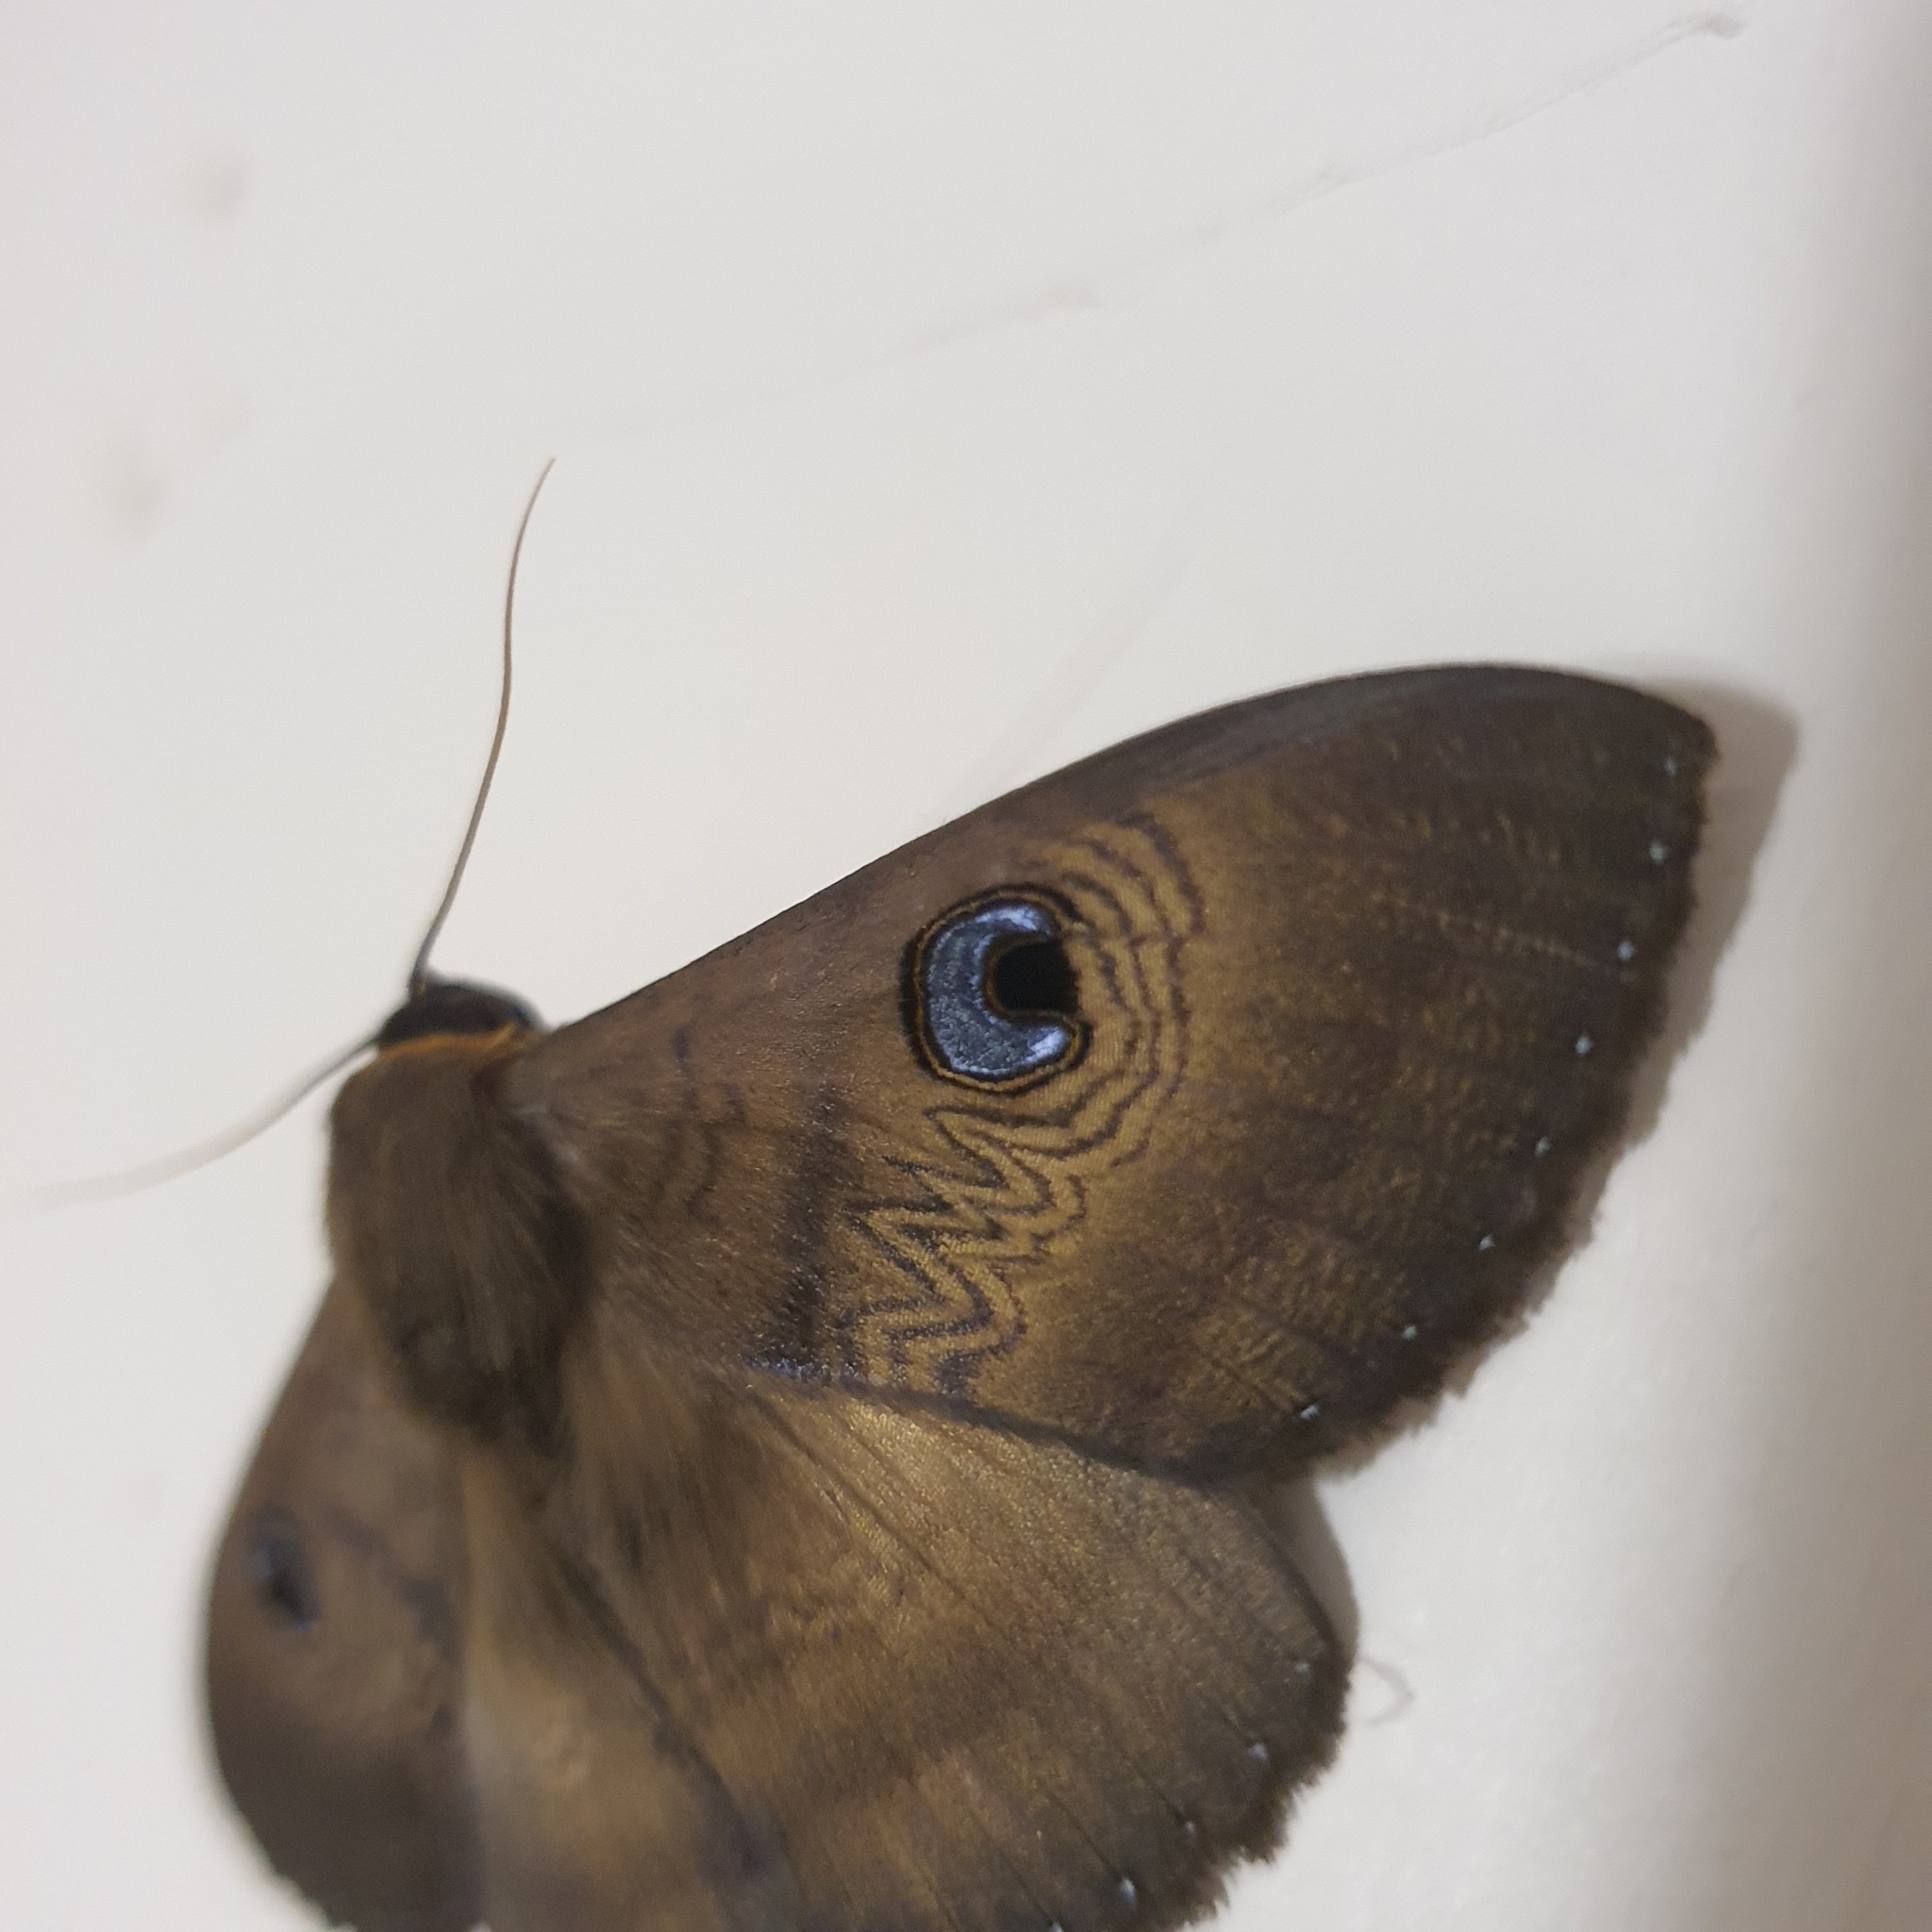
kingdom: Animalia
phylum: Arthropoda
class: Insecta
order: Lepidoptera
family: Erebidae
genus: Dasypodia
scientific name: Dasypodia selenophora
